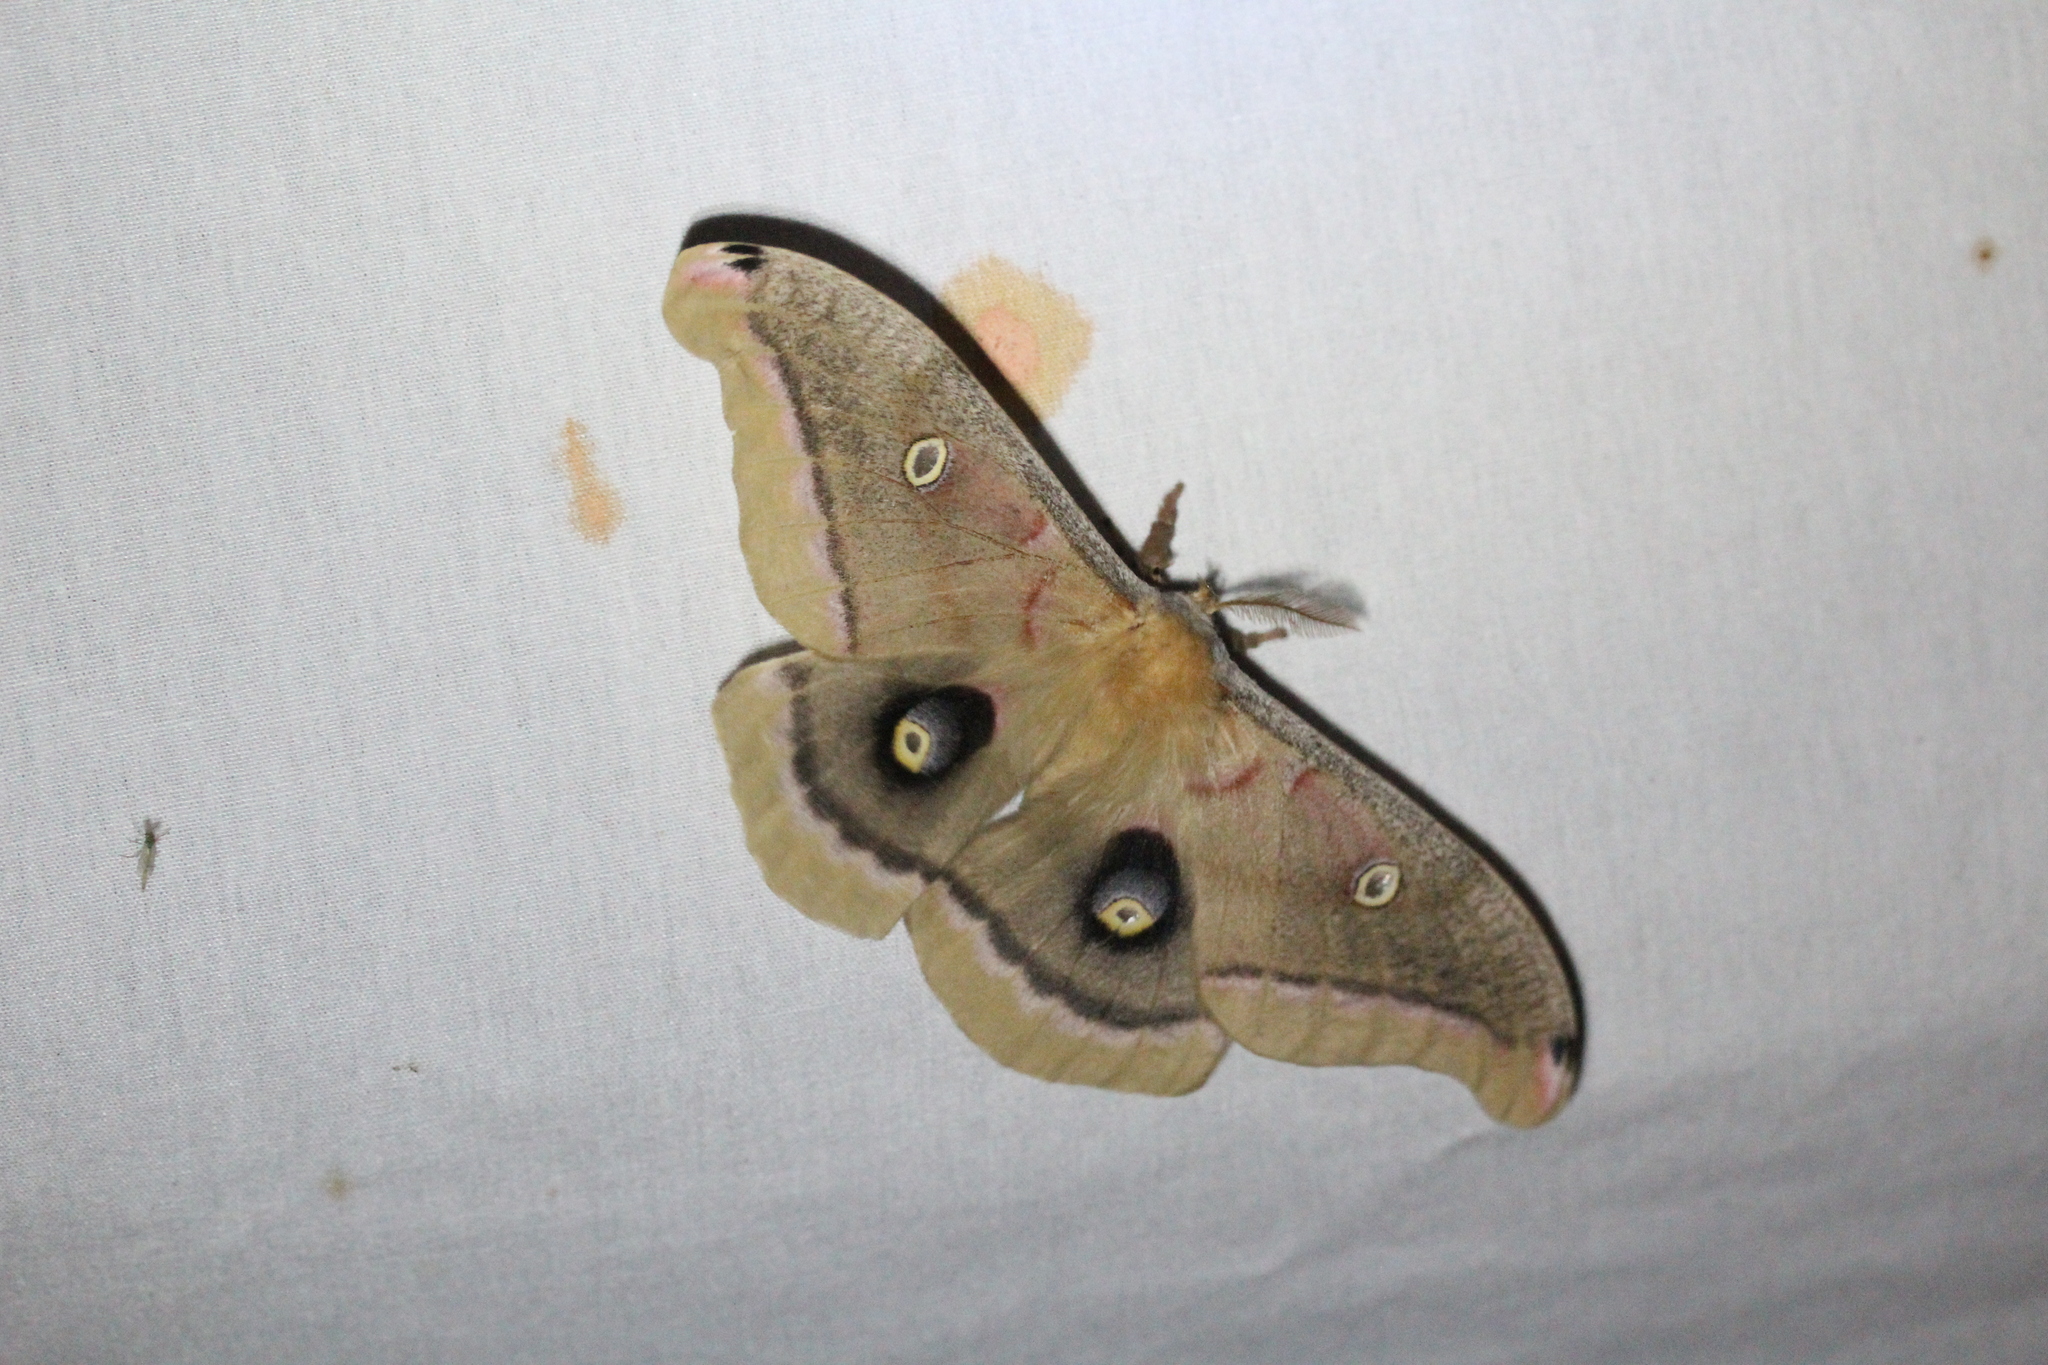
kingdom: Animalia
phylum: Arthropoda
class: Insecta
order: Lepidoptera
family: Saturniidae
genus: Antheraea
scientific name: Antheraea polyphemus
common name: Polyphemus moth
